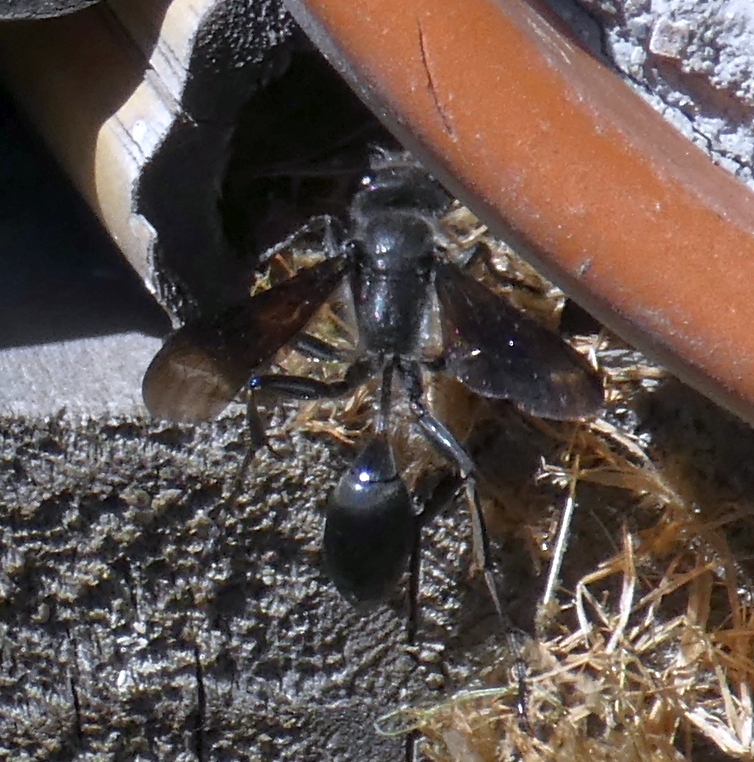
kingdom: Animalia
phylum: Arthropoda
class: Insecta
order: Hymenoptera
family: Sphecidae
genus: Isodontia
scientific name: Isodontia mexicana
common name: Mud dauber
